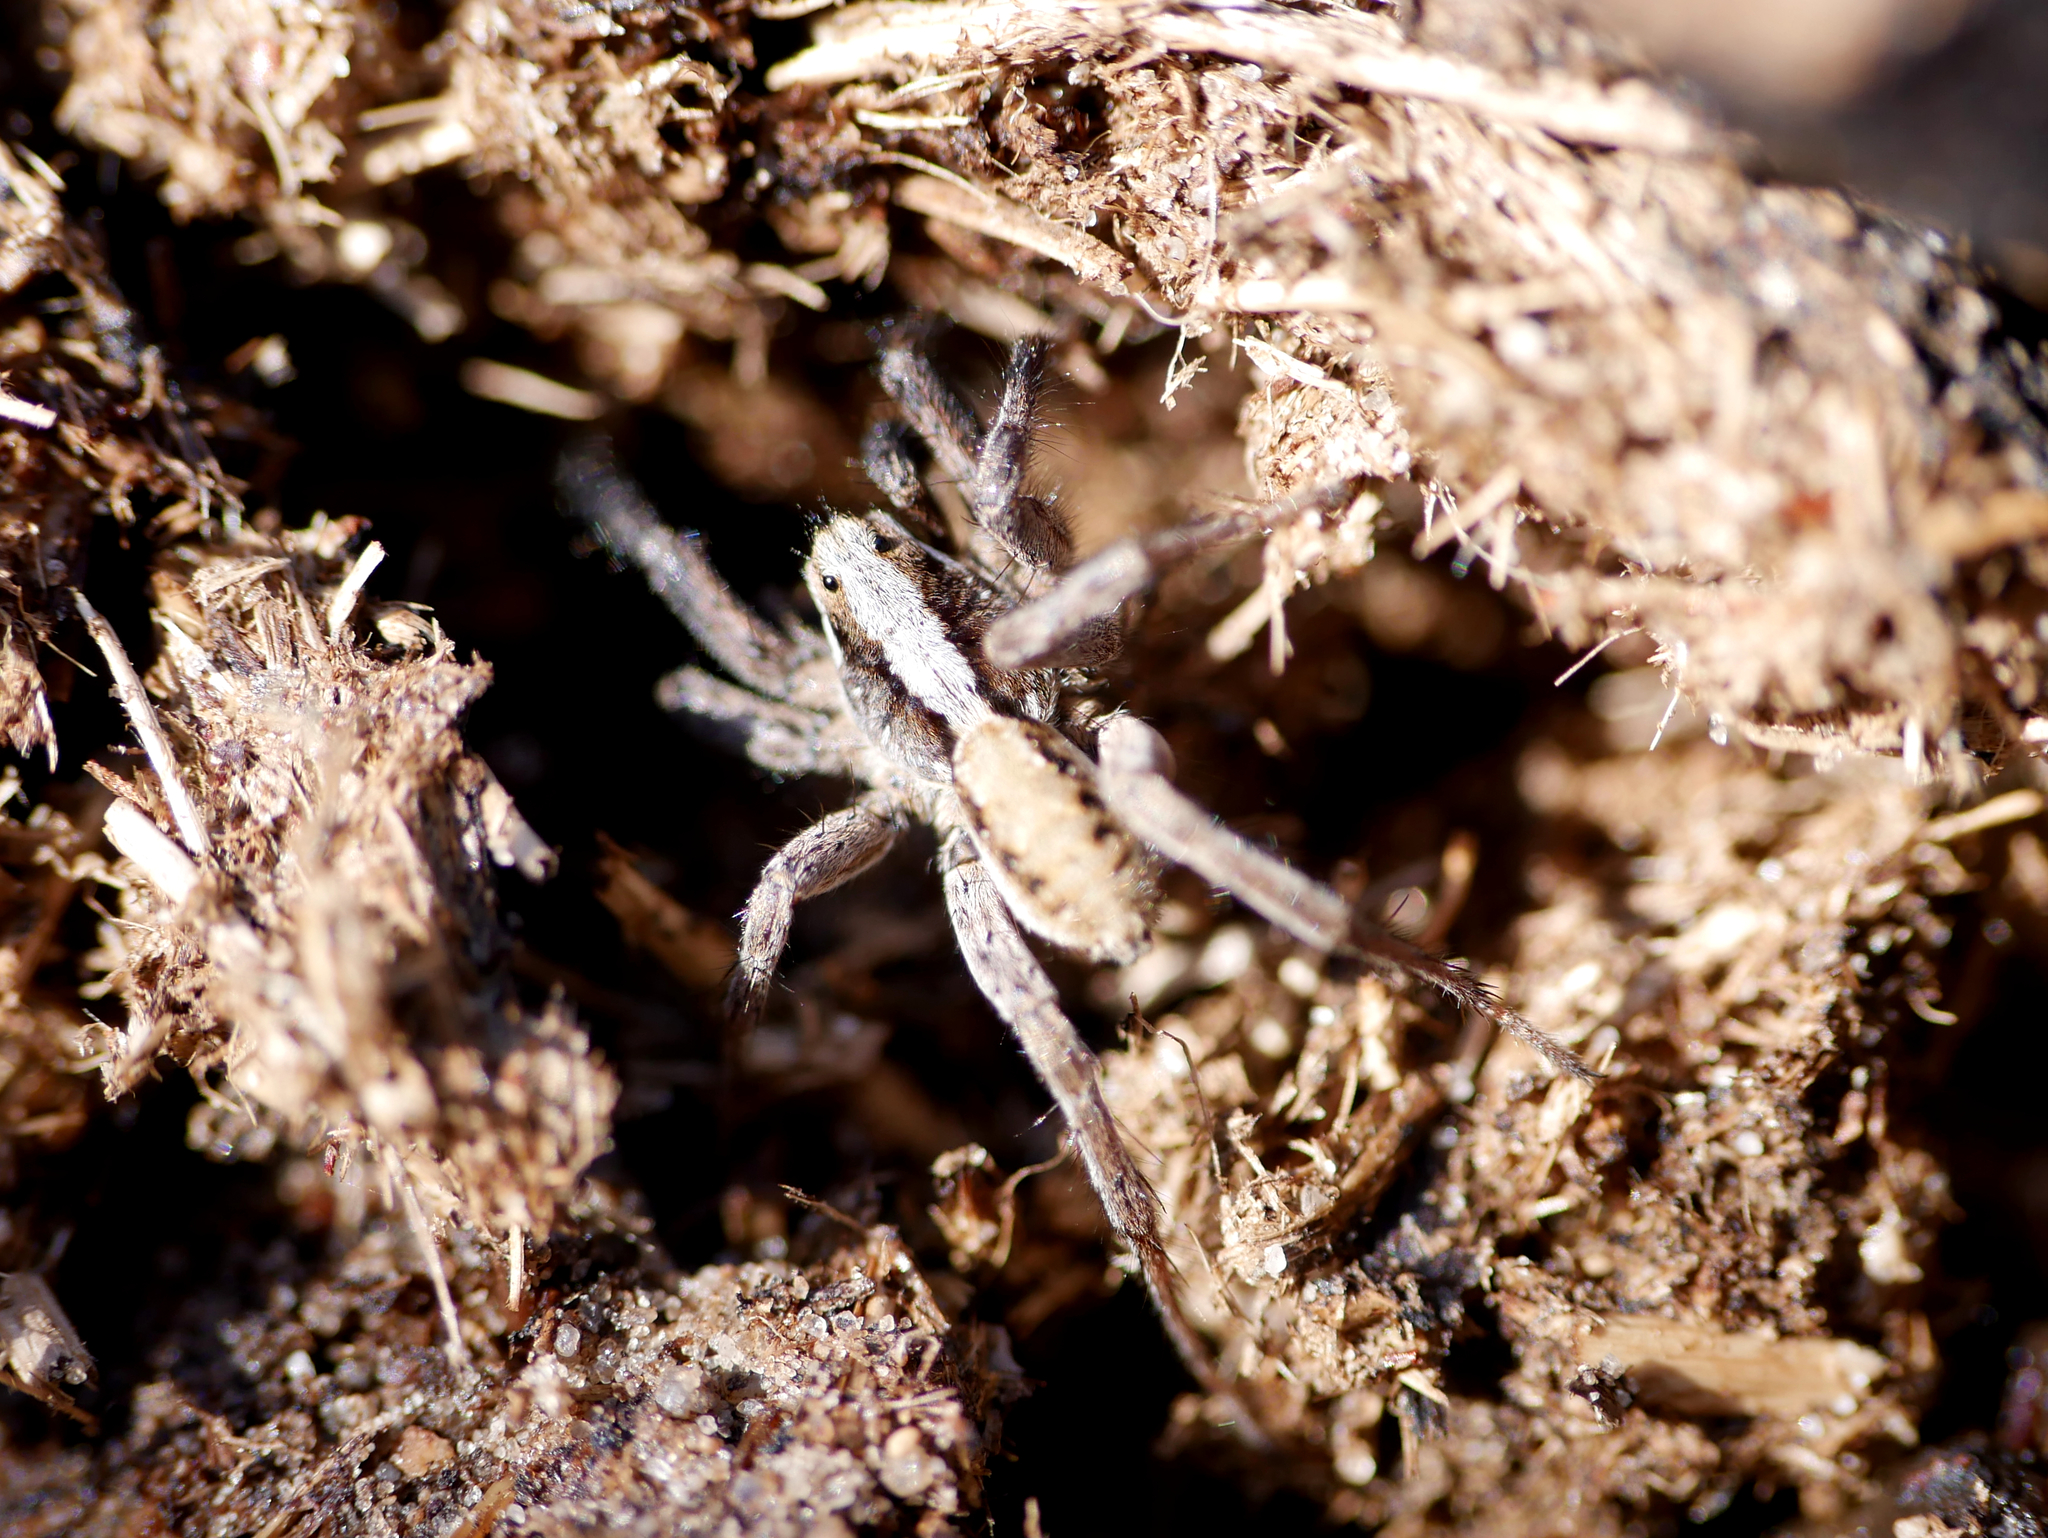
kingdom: Animalia
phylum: Arthropoda
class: Arachnida
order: Araneae
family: Lycosidae
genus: Alopecosa
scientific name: Alopecosa barbipes
